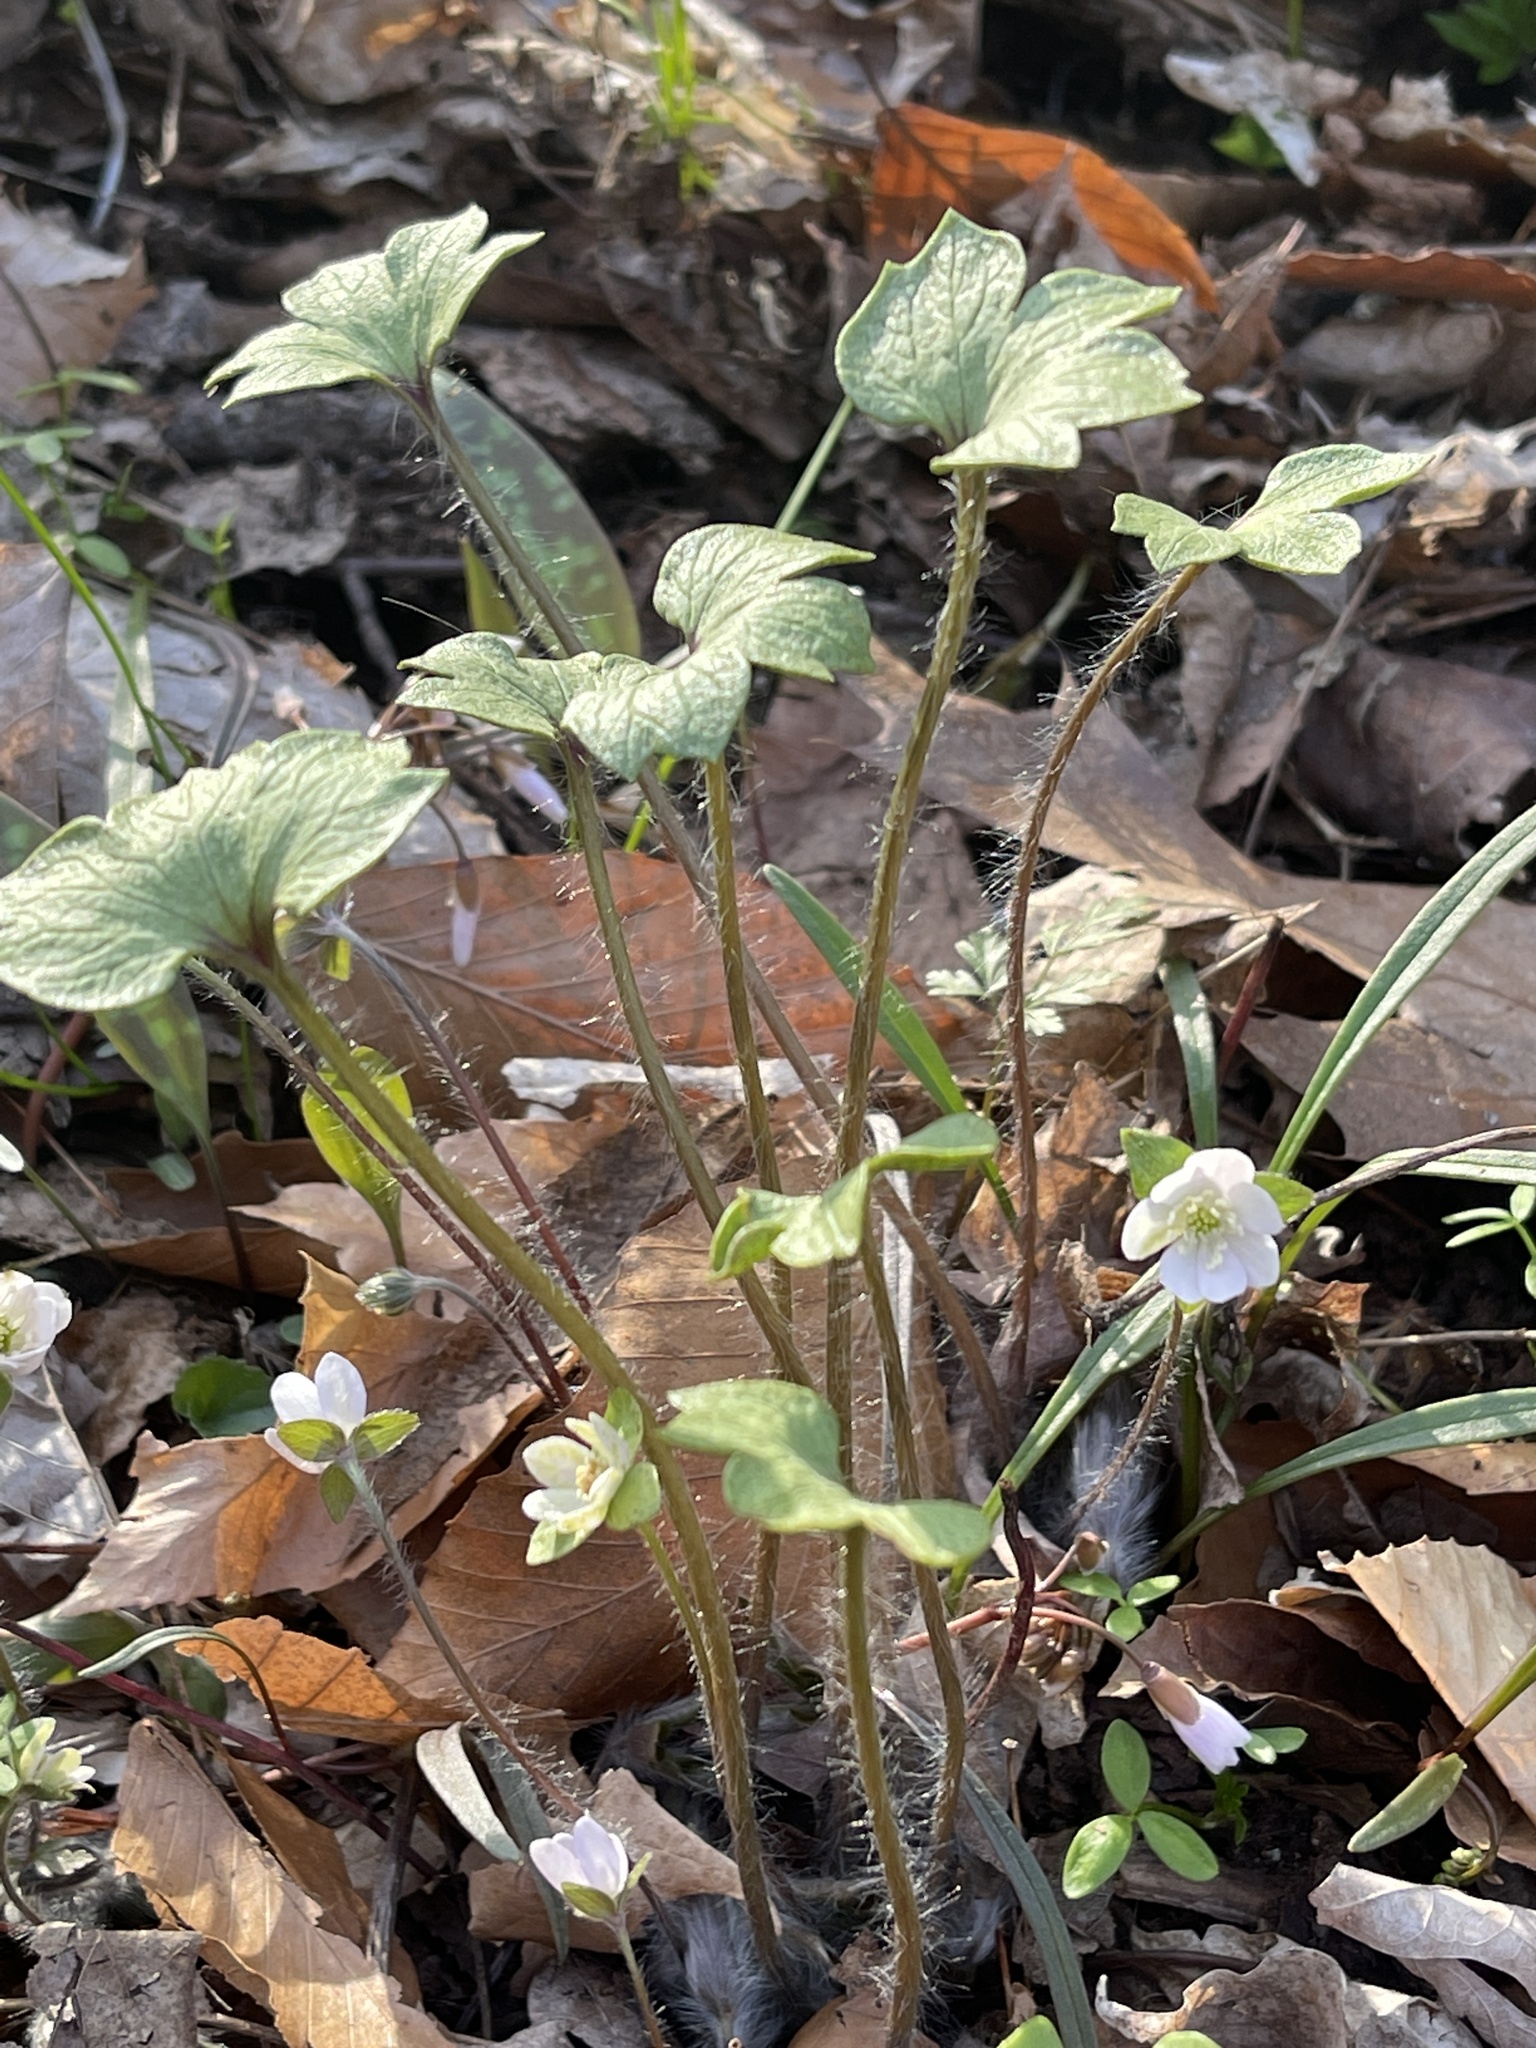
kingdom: Plantae
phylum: Tracheophyta
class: Magnoliopsida
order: Ranunculales
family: Ranunculaceae
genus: Hepatica
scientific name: Hepatica acutiloba
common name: Sharp-lobed hepatica
